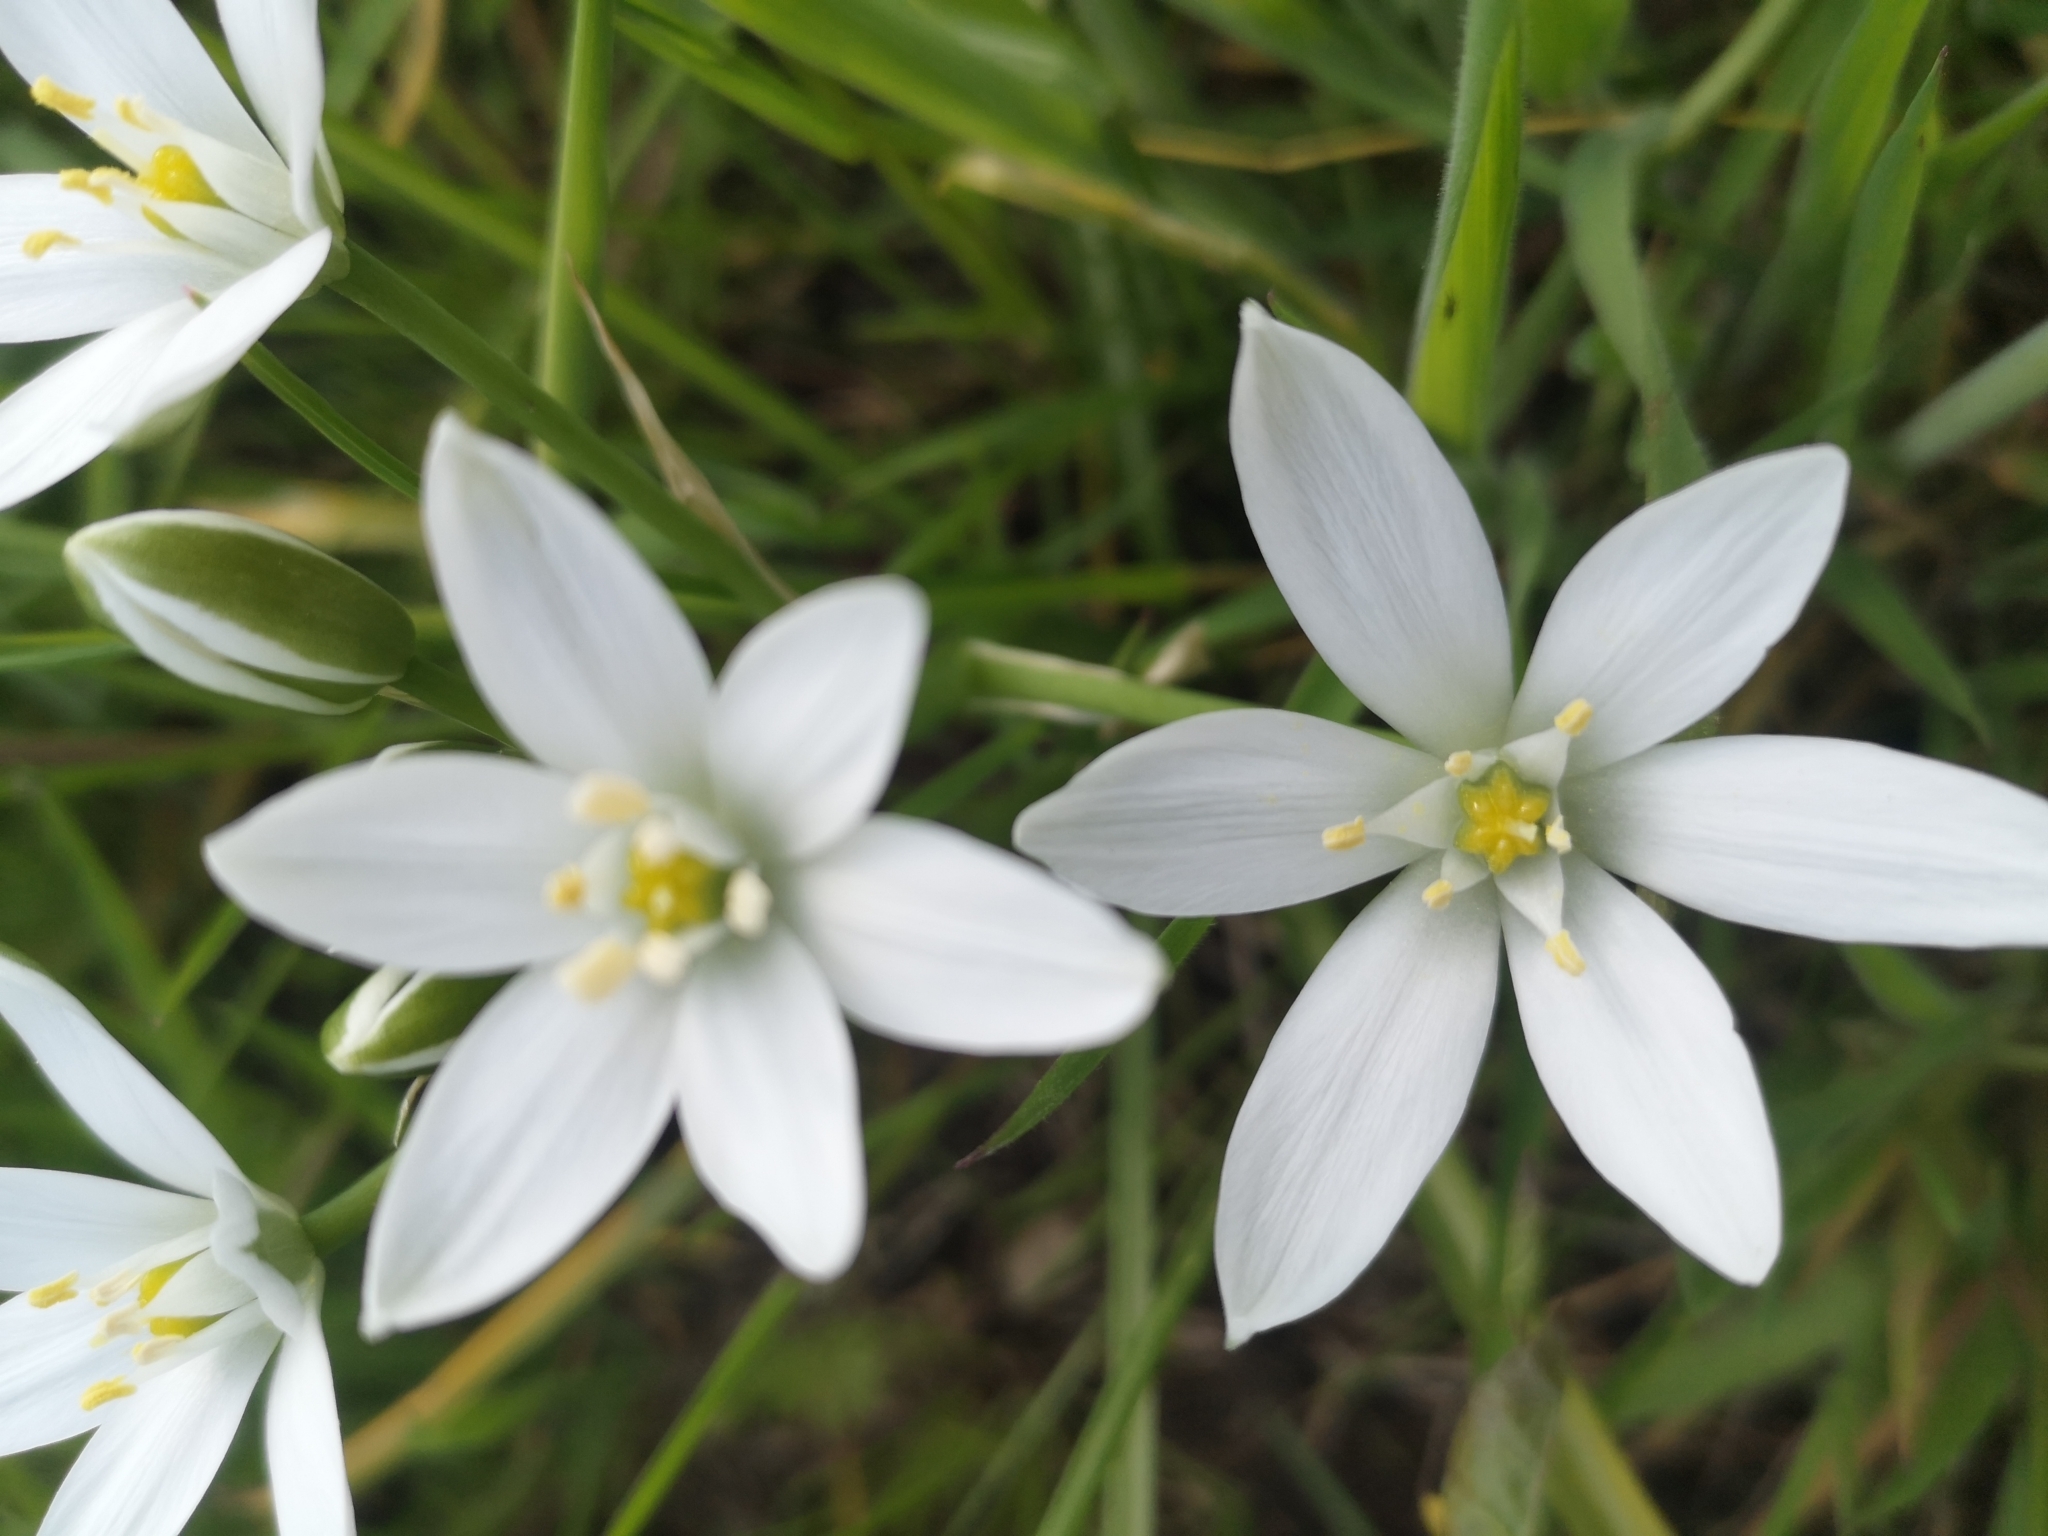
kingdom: Plantae
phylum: Tracheophyta
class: Liliopsida
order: Asparagales
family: Asparagaceae
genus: Ornithogalum
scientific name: Ornithogalum umbellatum
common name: Garden star-of-bethlehem
